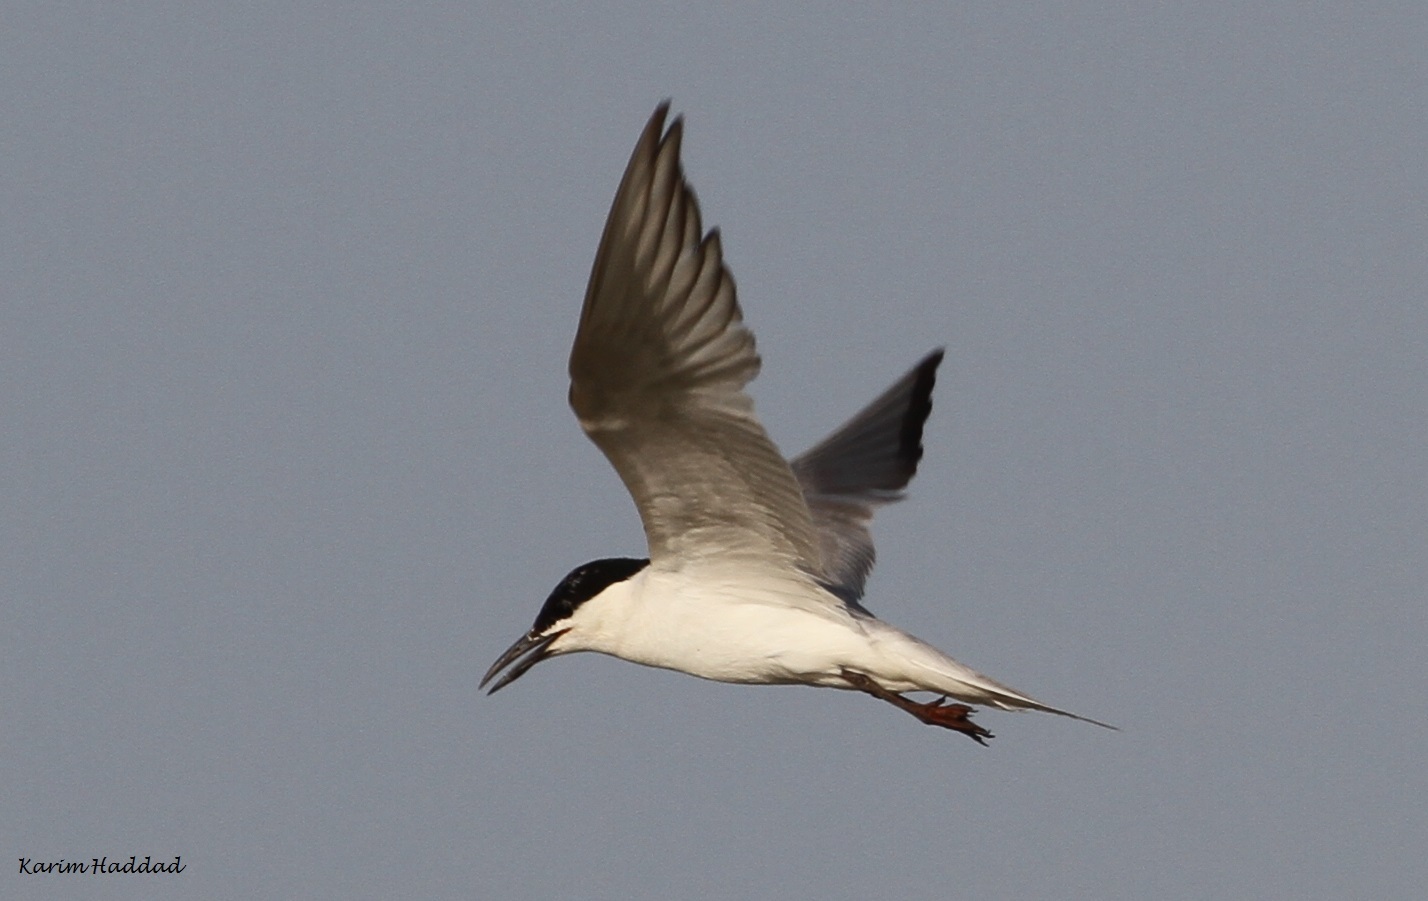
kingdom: Animalia
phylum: Chordata
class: Aves
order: Charadriiformes
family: Laridae
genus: Gelochelidon
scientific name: Gelochelidon nilotica
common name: Gull-billed tern
